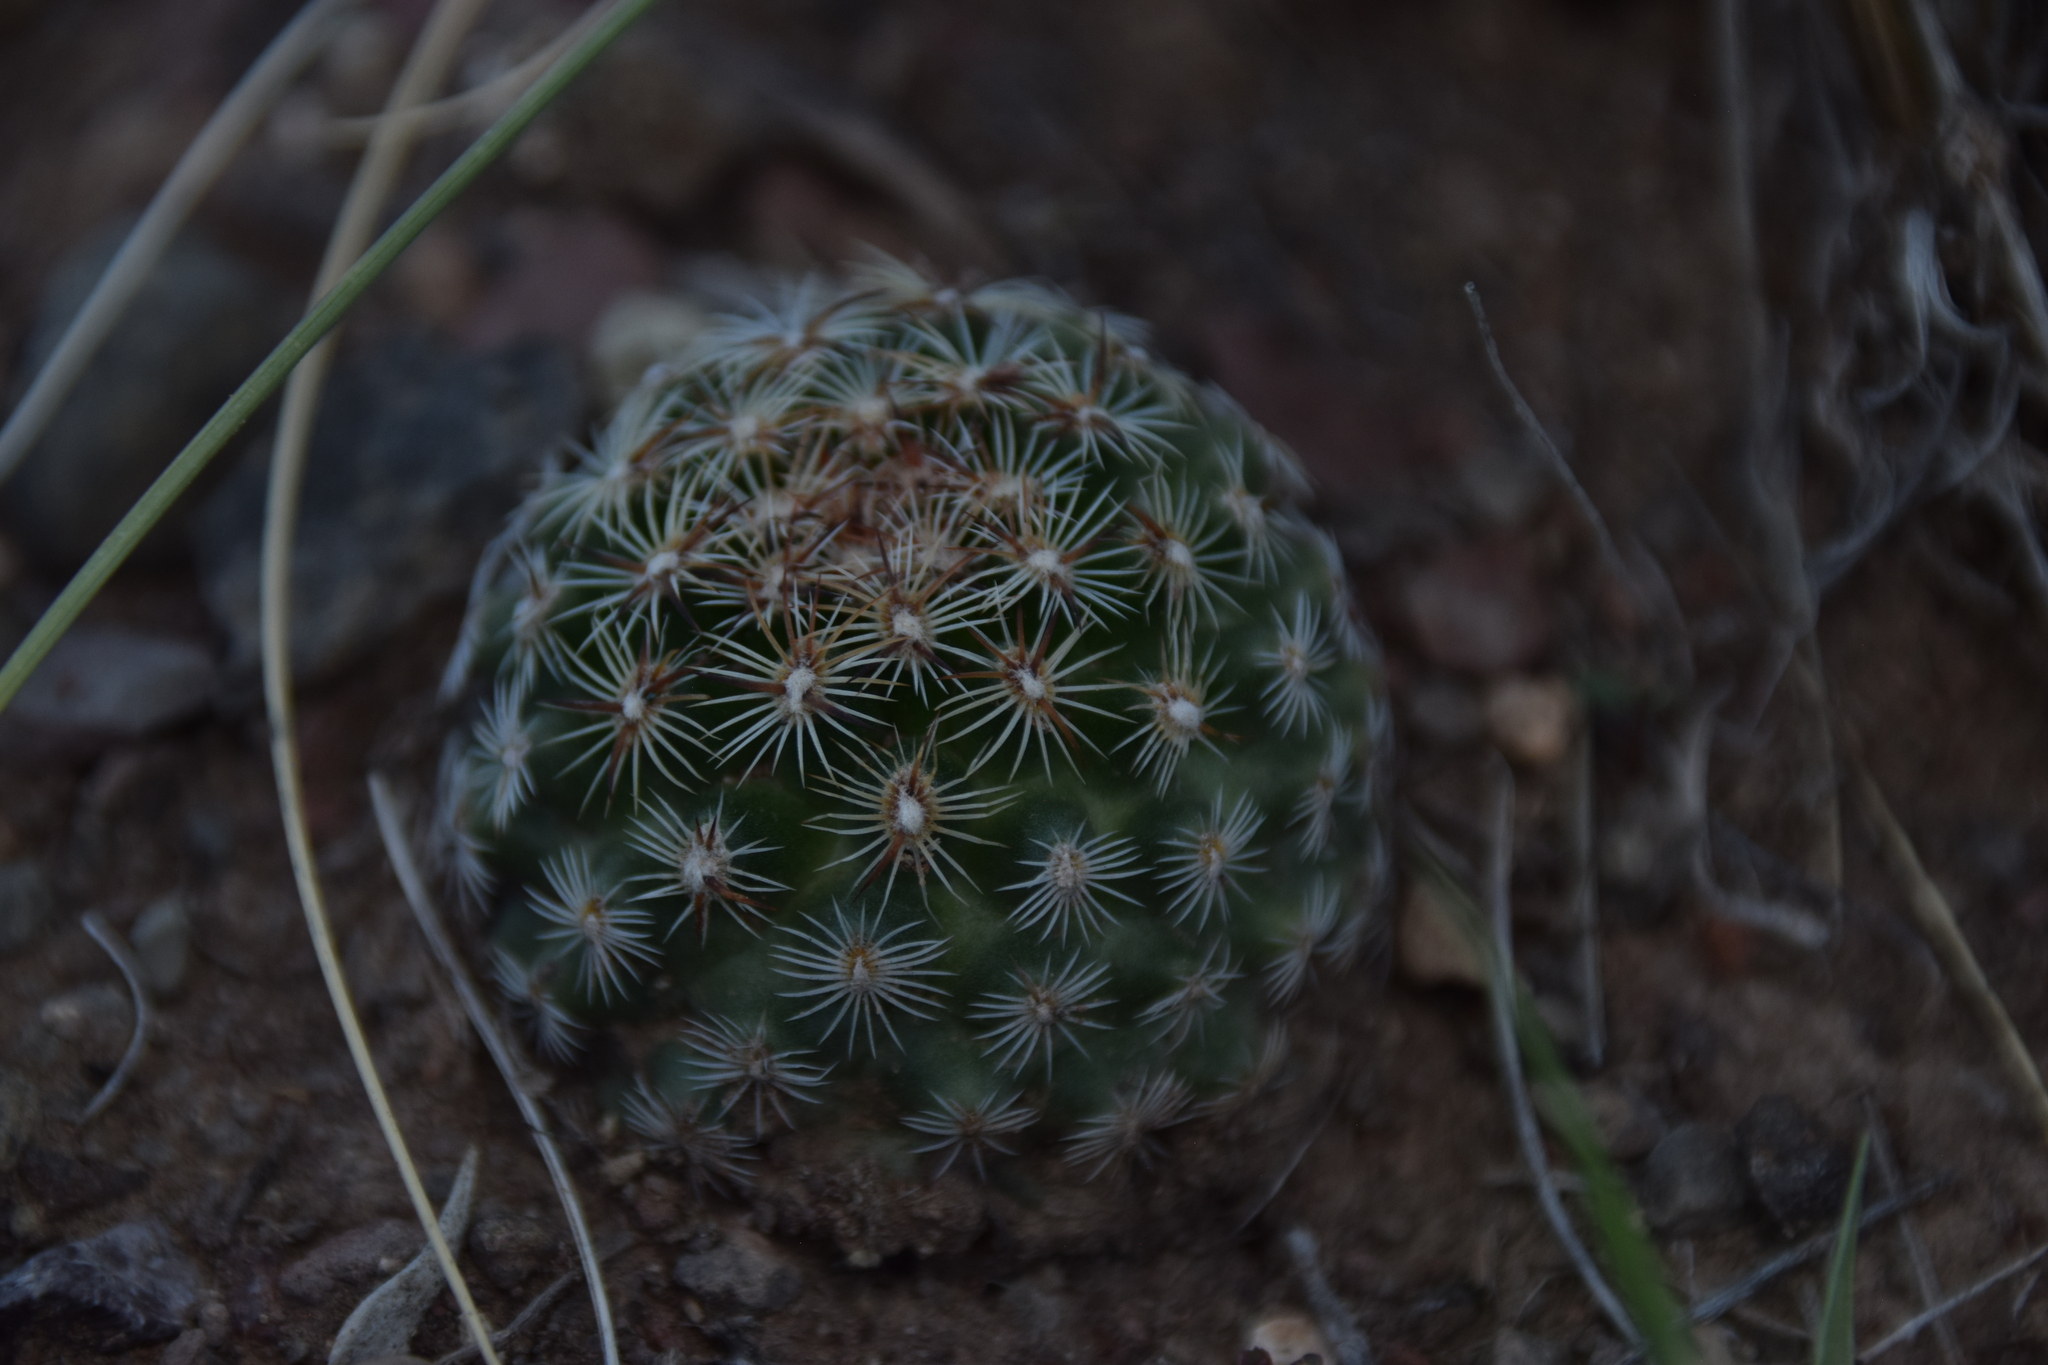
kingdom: Plantae
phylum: Tracheophyta
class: Magnoliopsida
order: Caryophyllales
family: Cactaceae
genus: Pediocactus
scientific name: Pediocactus simpsonii
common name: Simpson's hedgehog cactus
